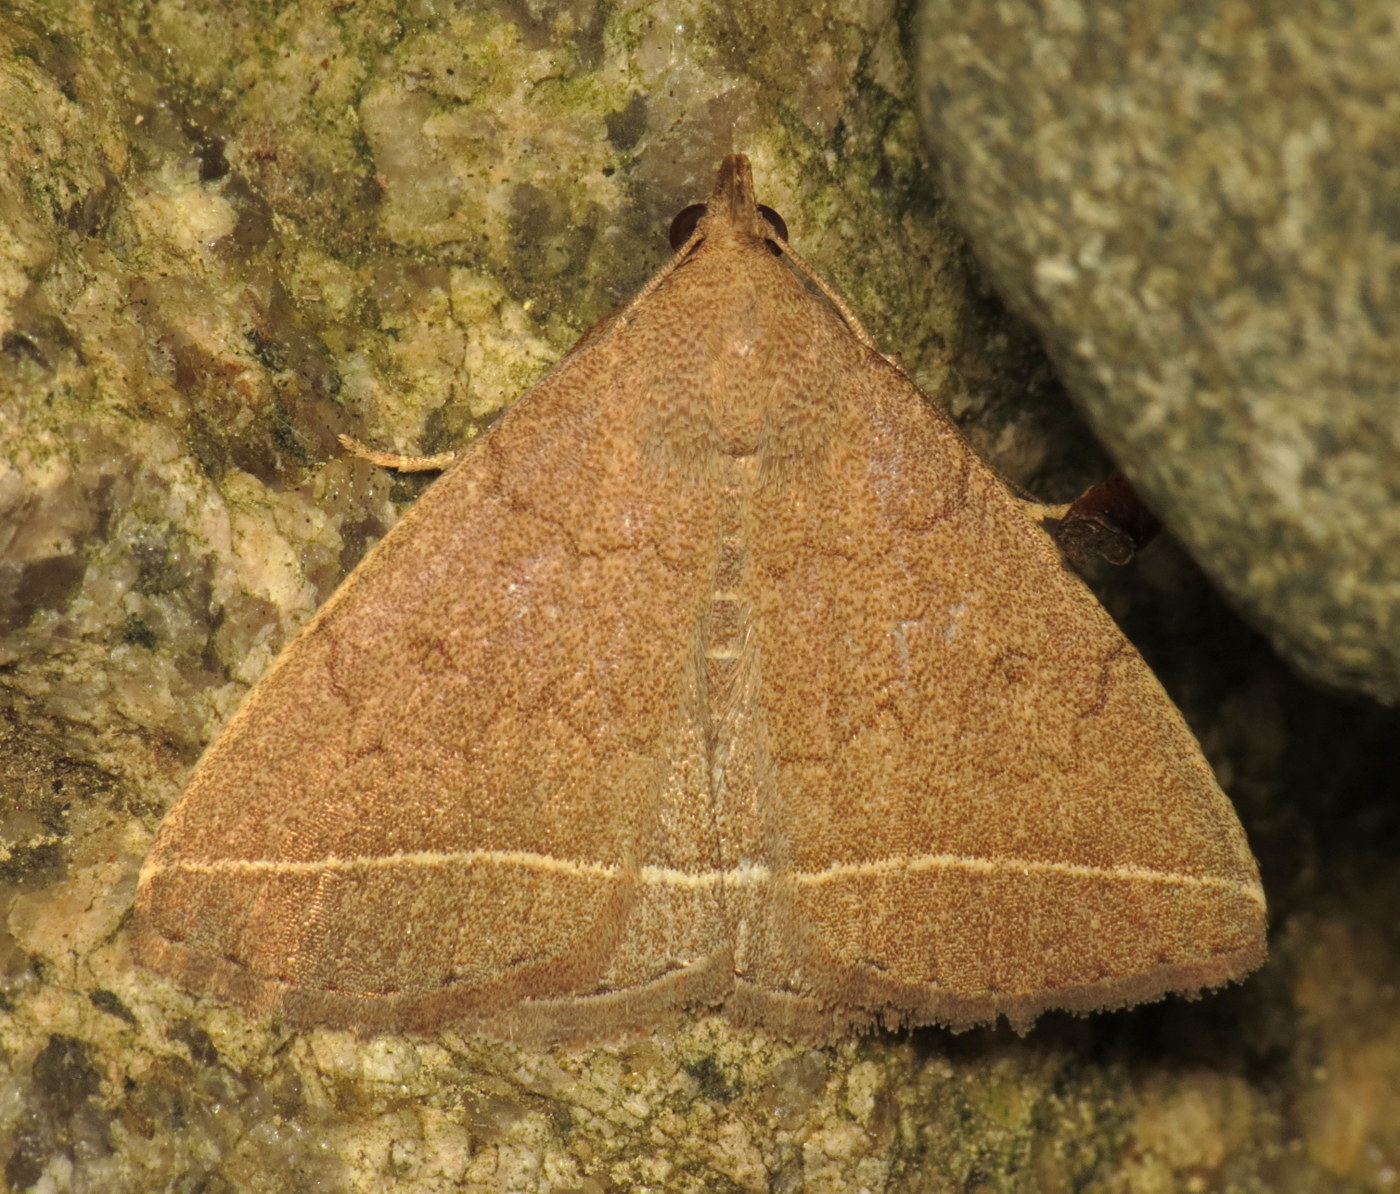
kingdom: Animalia
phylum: Arthropoda
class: Insecta
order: Lepidoptera
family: Erebidae
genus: Zanclognatha
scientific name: Zanclognatha marcidilinea
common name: Yellowish fan-foot
